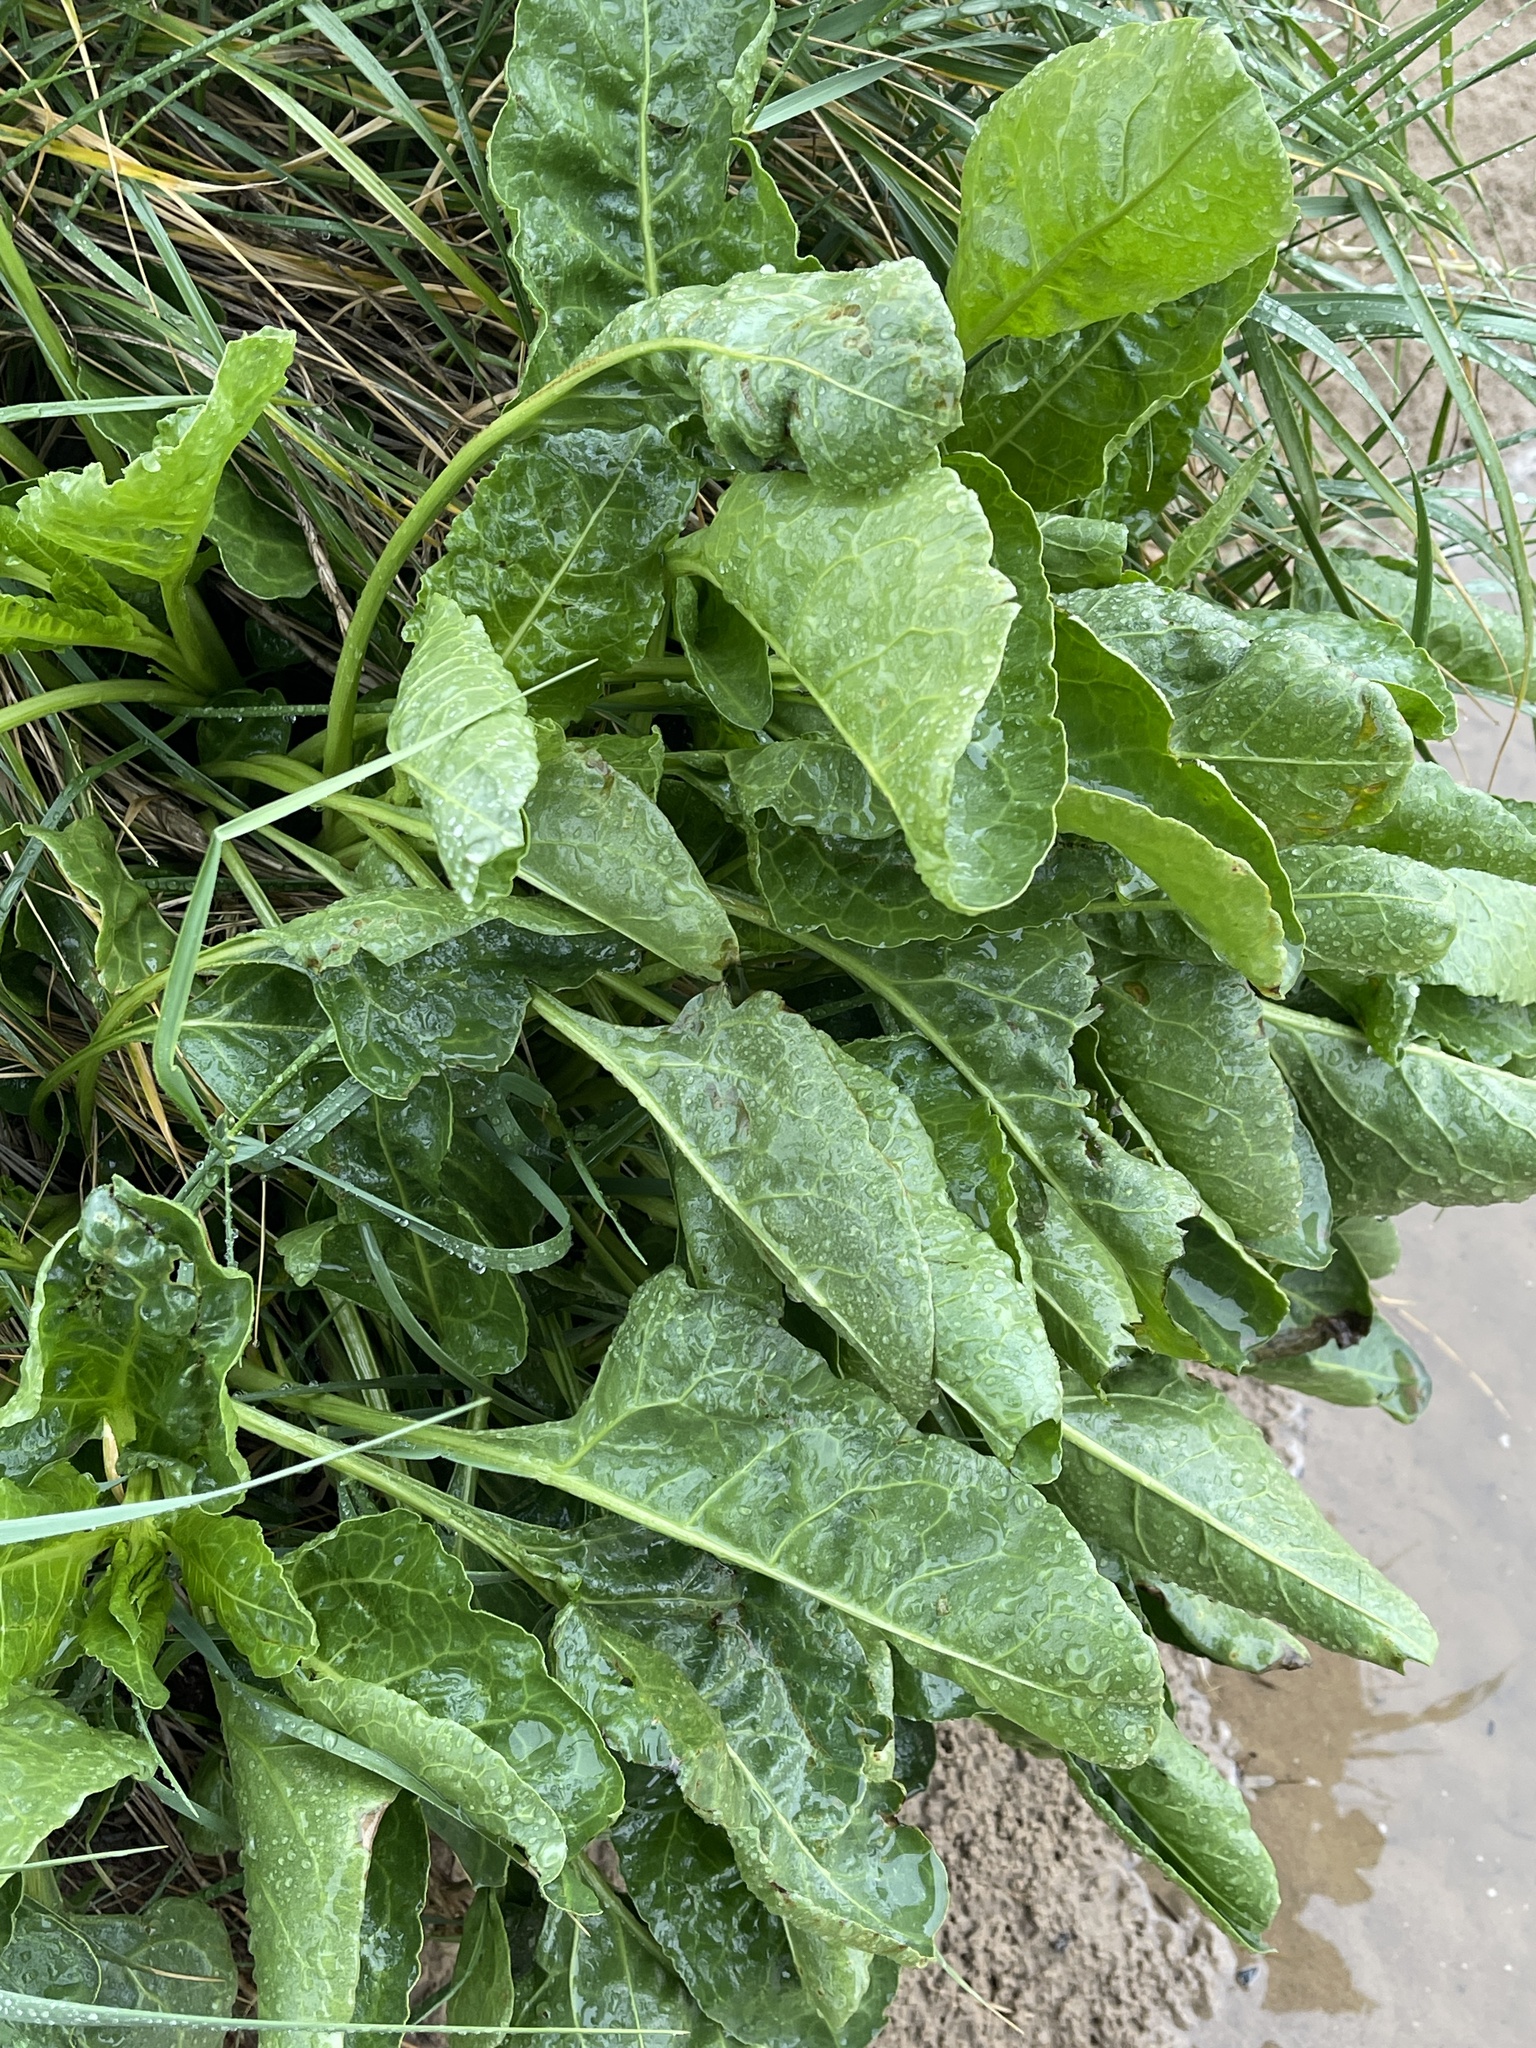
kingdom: Plantae
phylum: Tracheophyta
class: Magnoliopsida
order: Caryophyllales
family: Amaranthaceae
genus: Beta
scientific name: Beta vulgaris
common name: Beet
